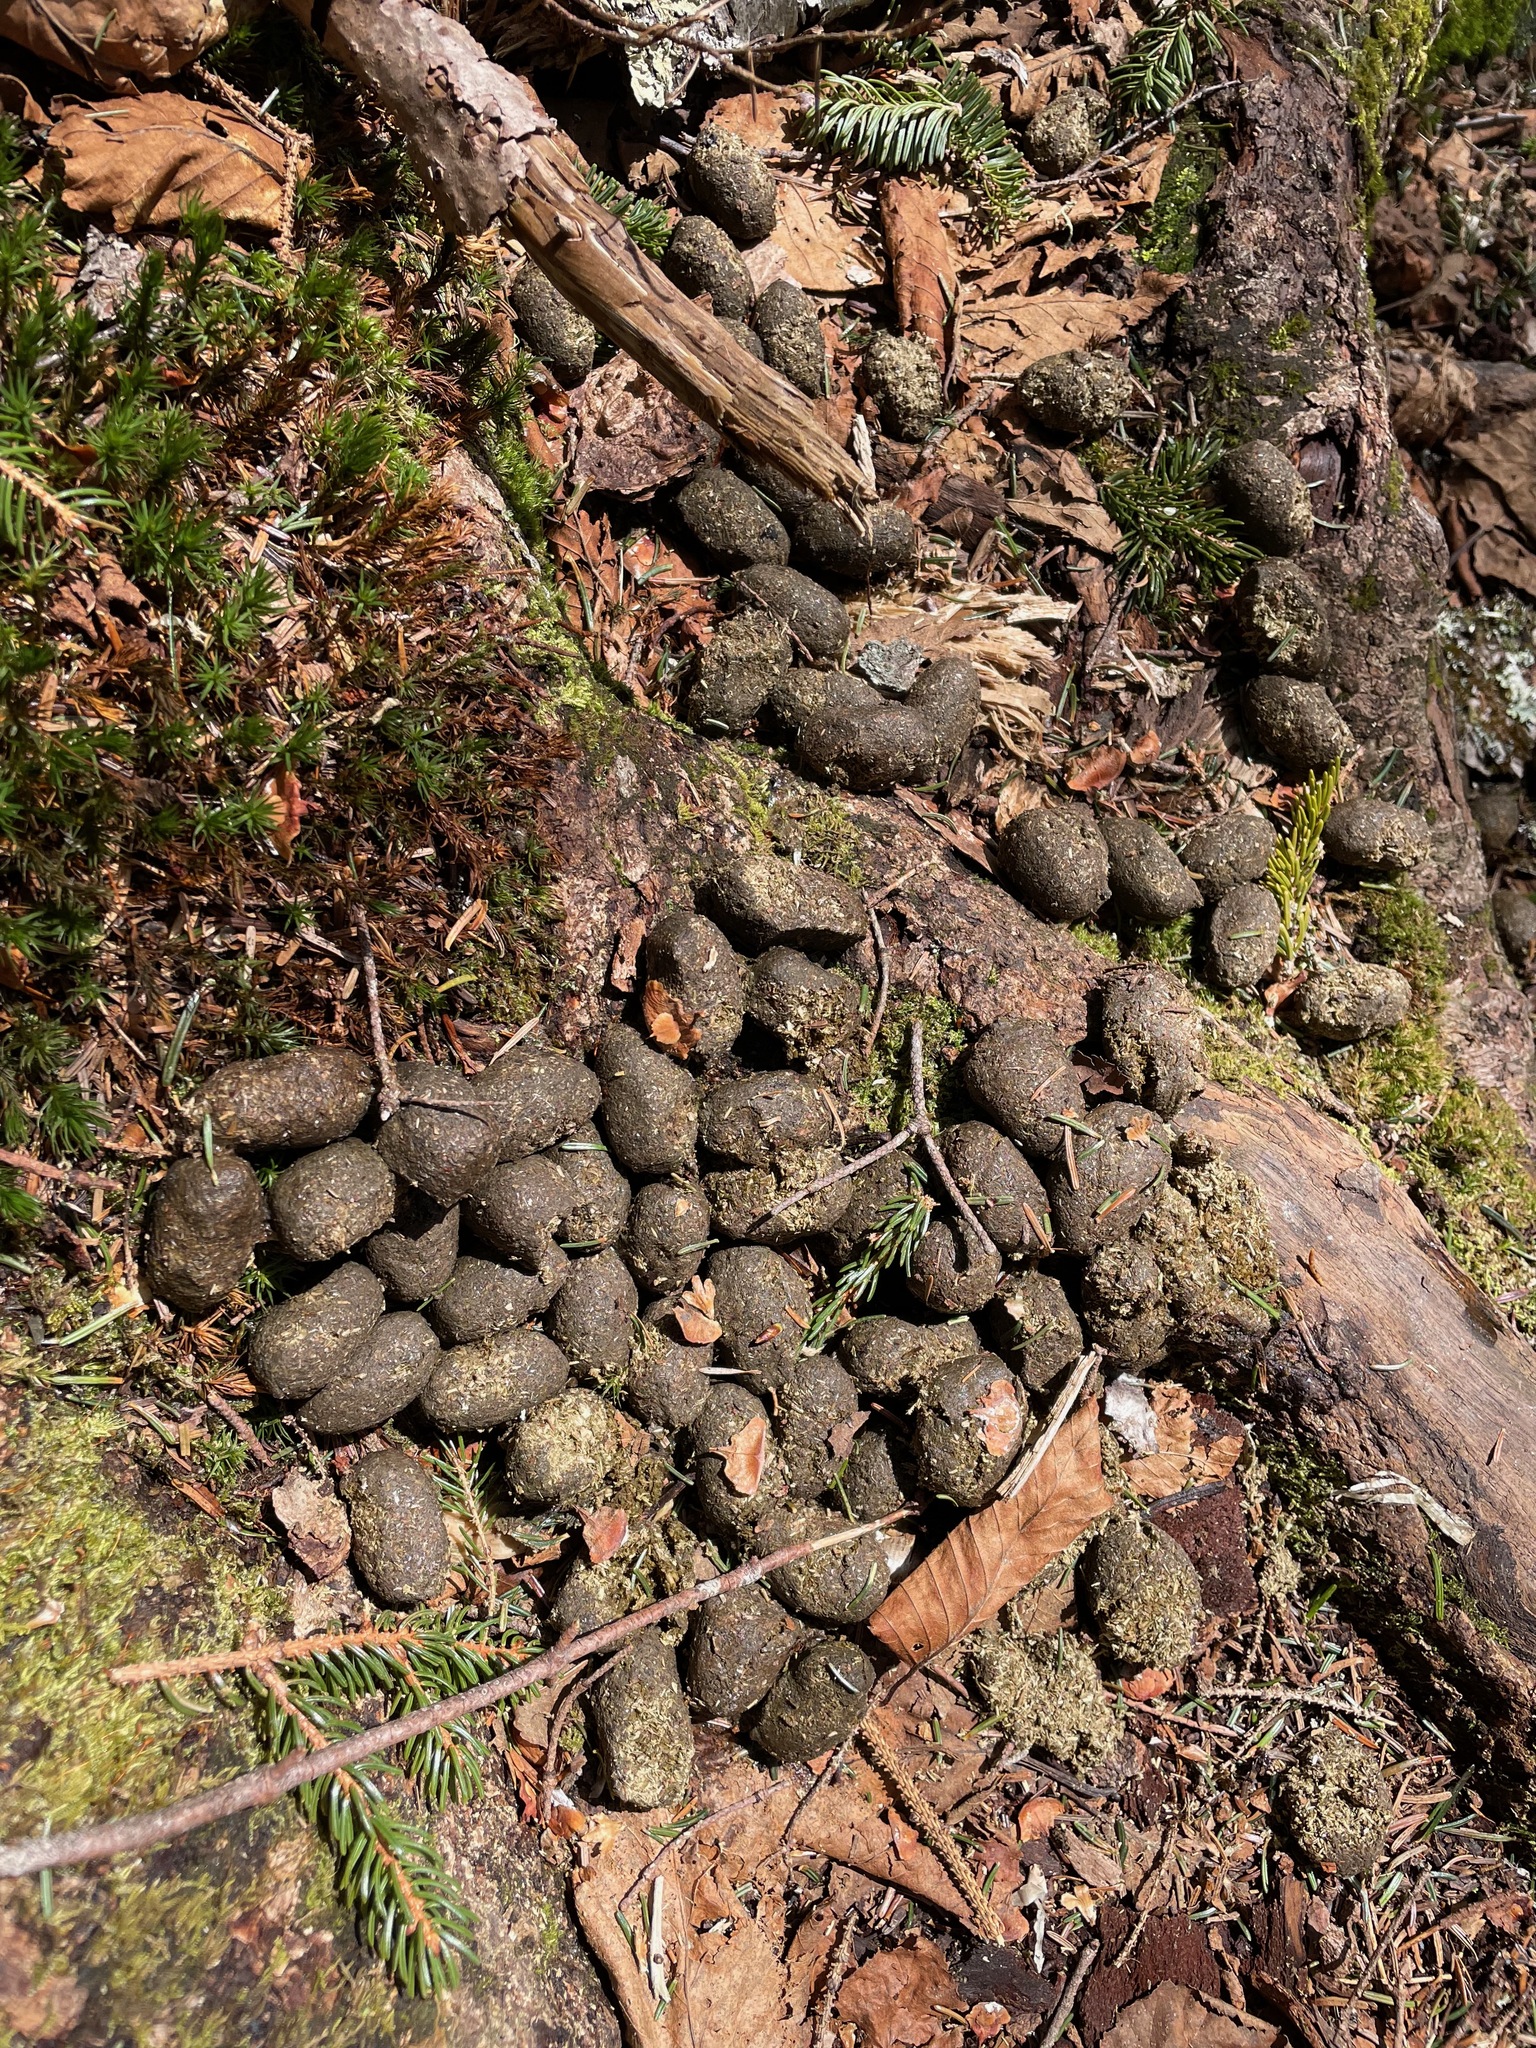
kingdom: Animalia
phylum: Chordata
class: Mammalia
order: Artiodactyla
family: Cervidae
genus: Alces
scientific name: Alces alces
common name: Moose
